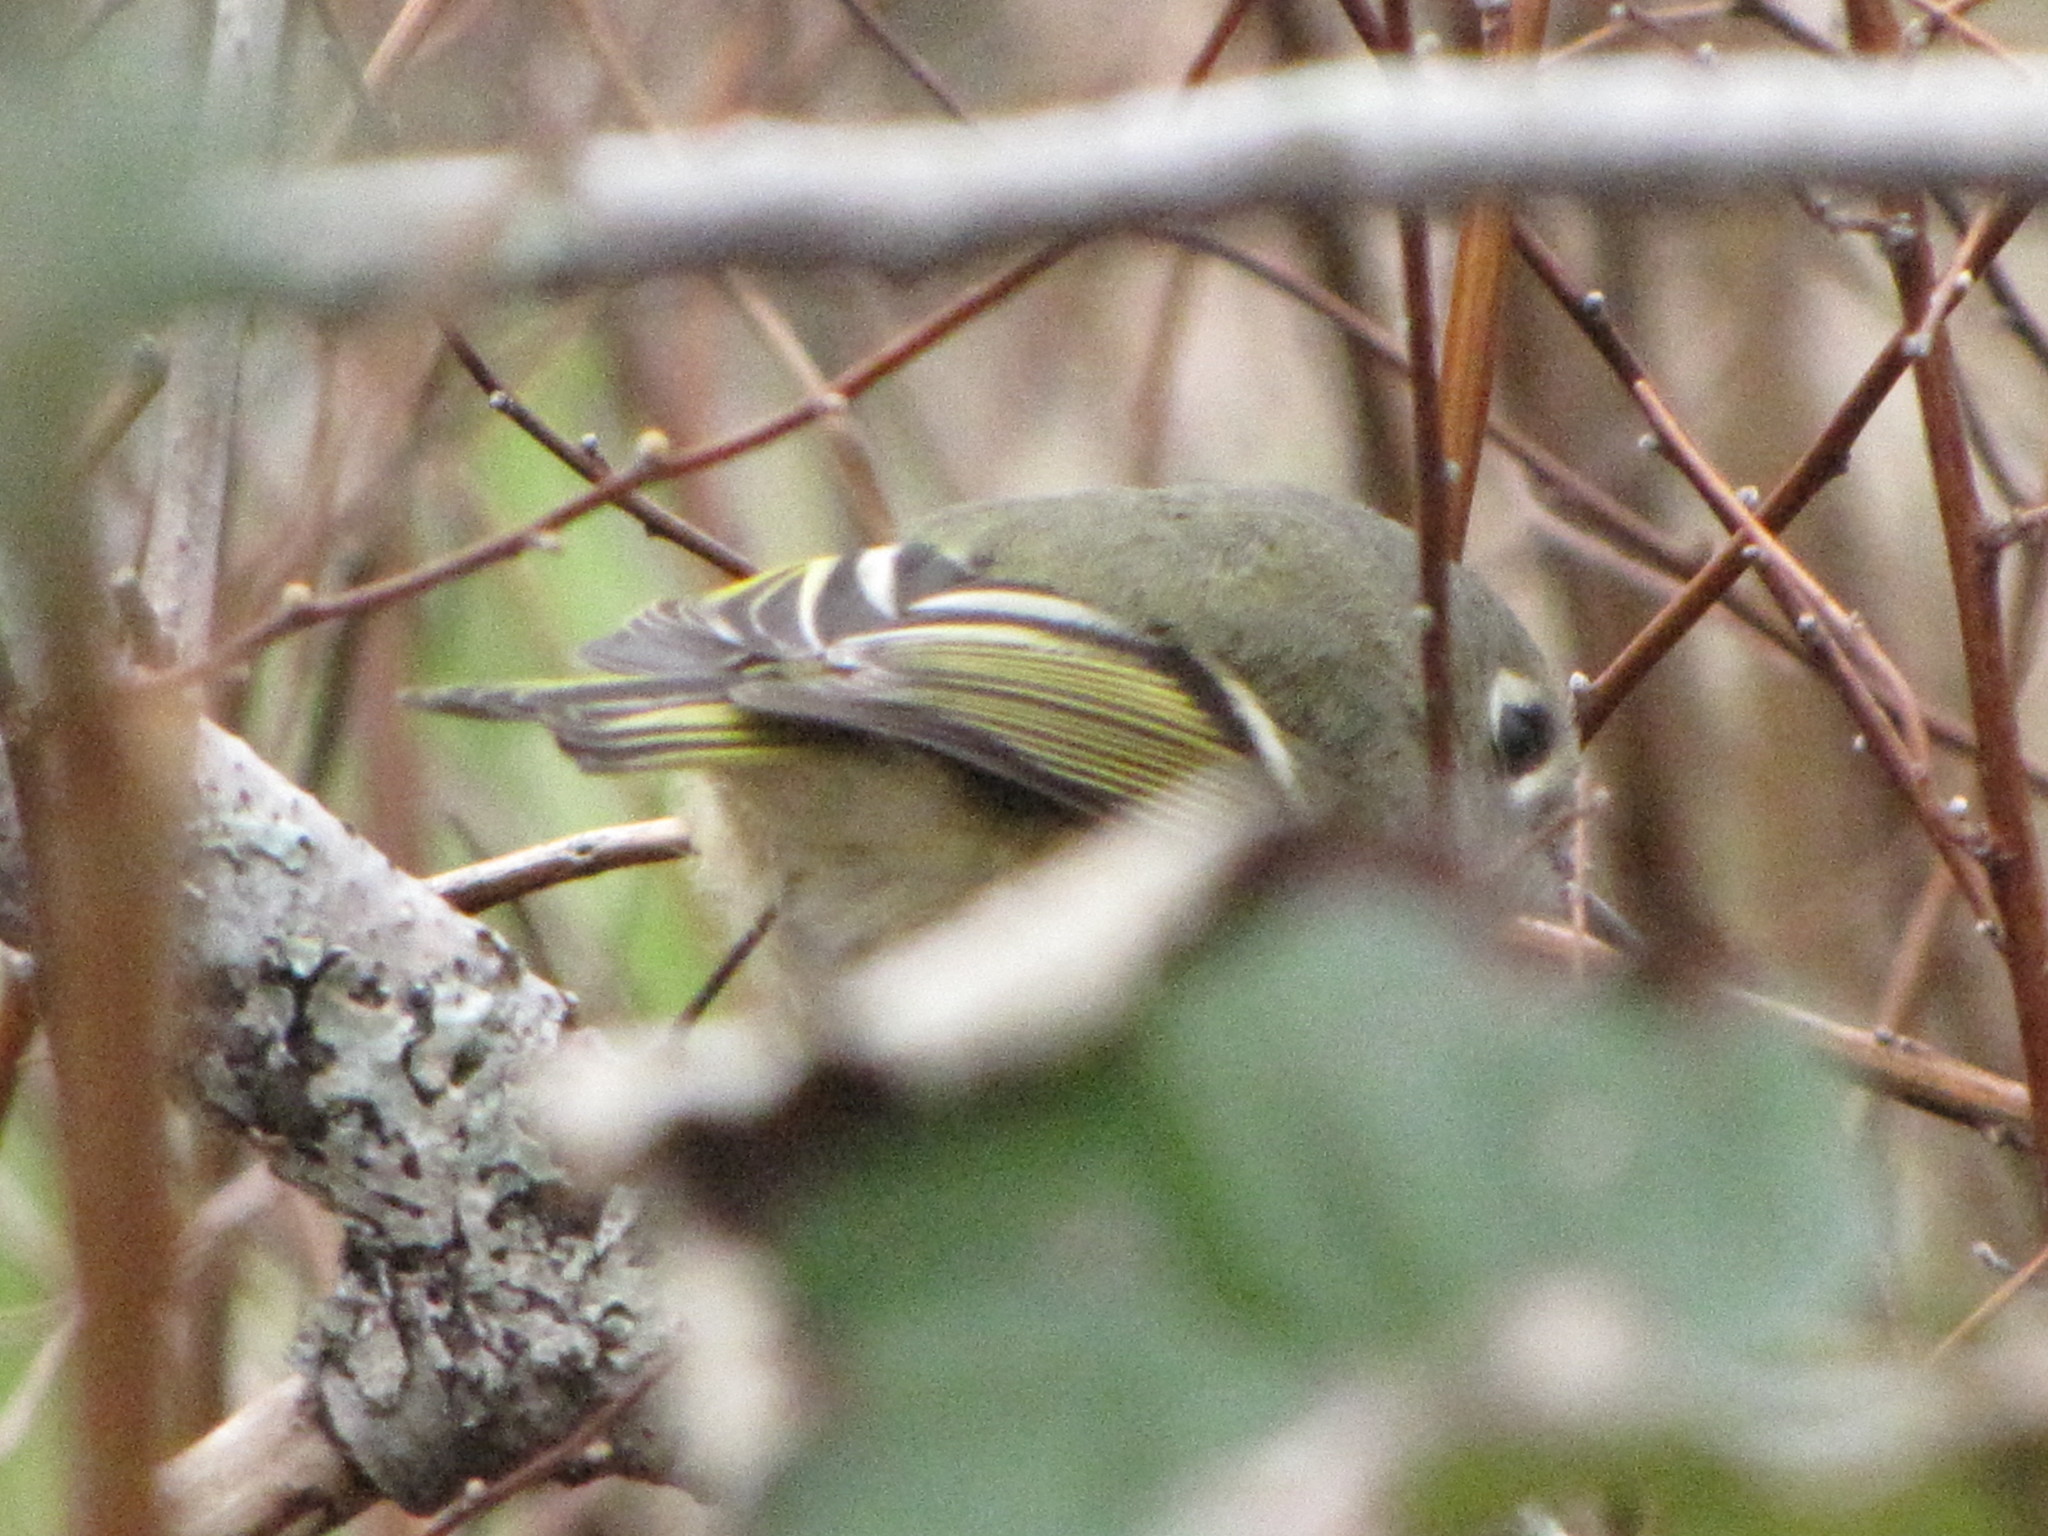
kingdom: Animalia
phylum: Chordata
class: Aves
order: Passeriformes
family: Regulidae
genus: Regulus
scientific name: Regulus calendula
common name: Ruby-crowned kinglet
